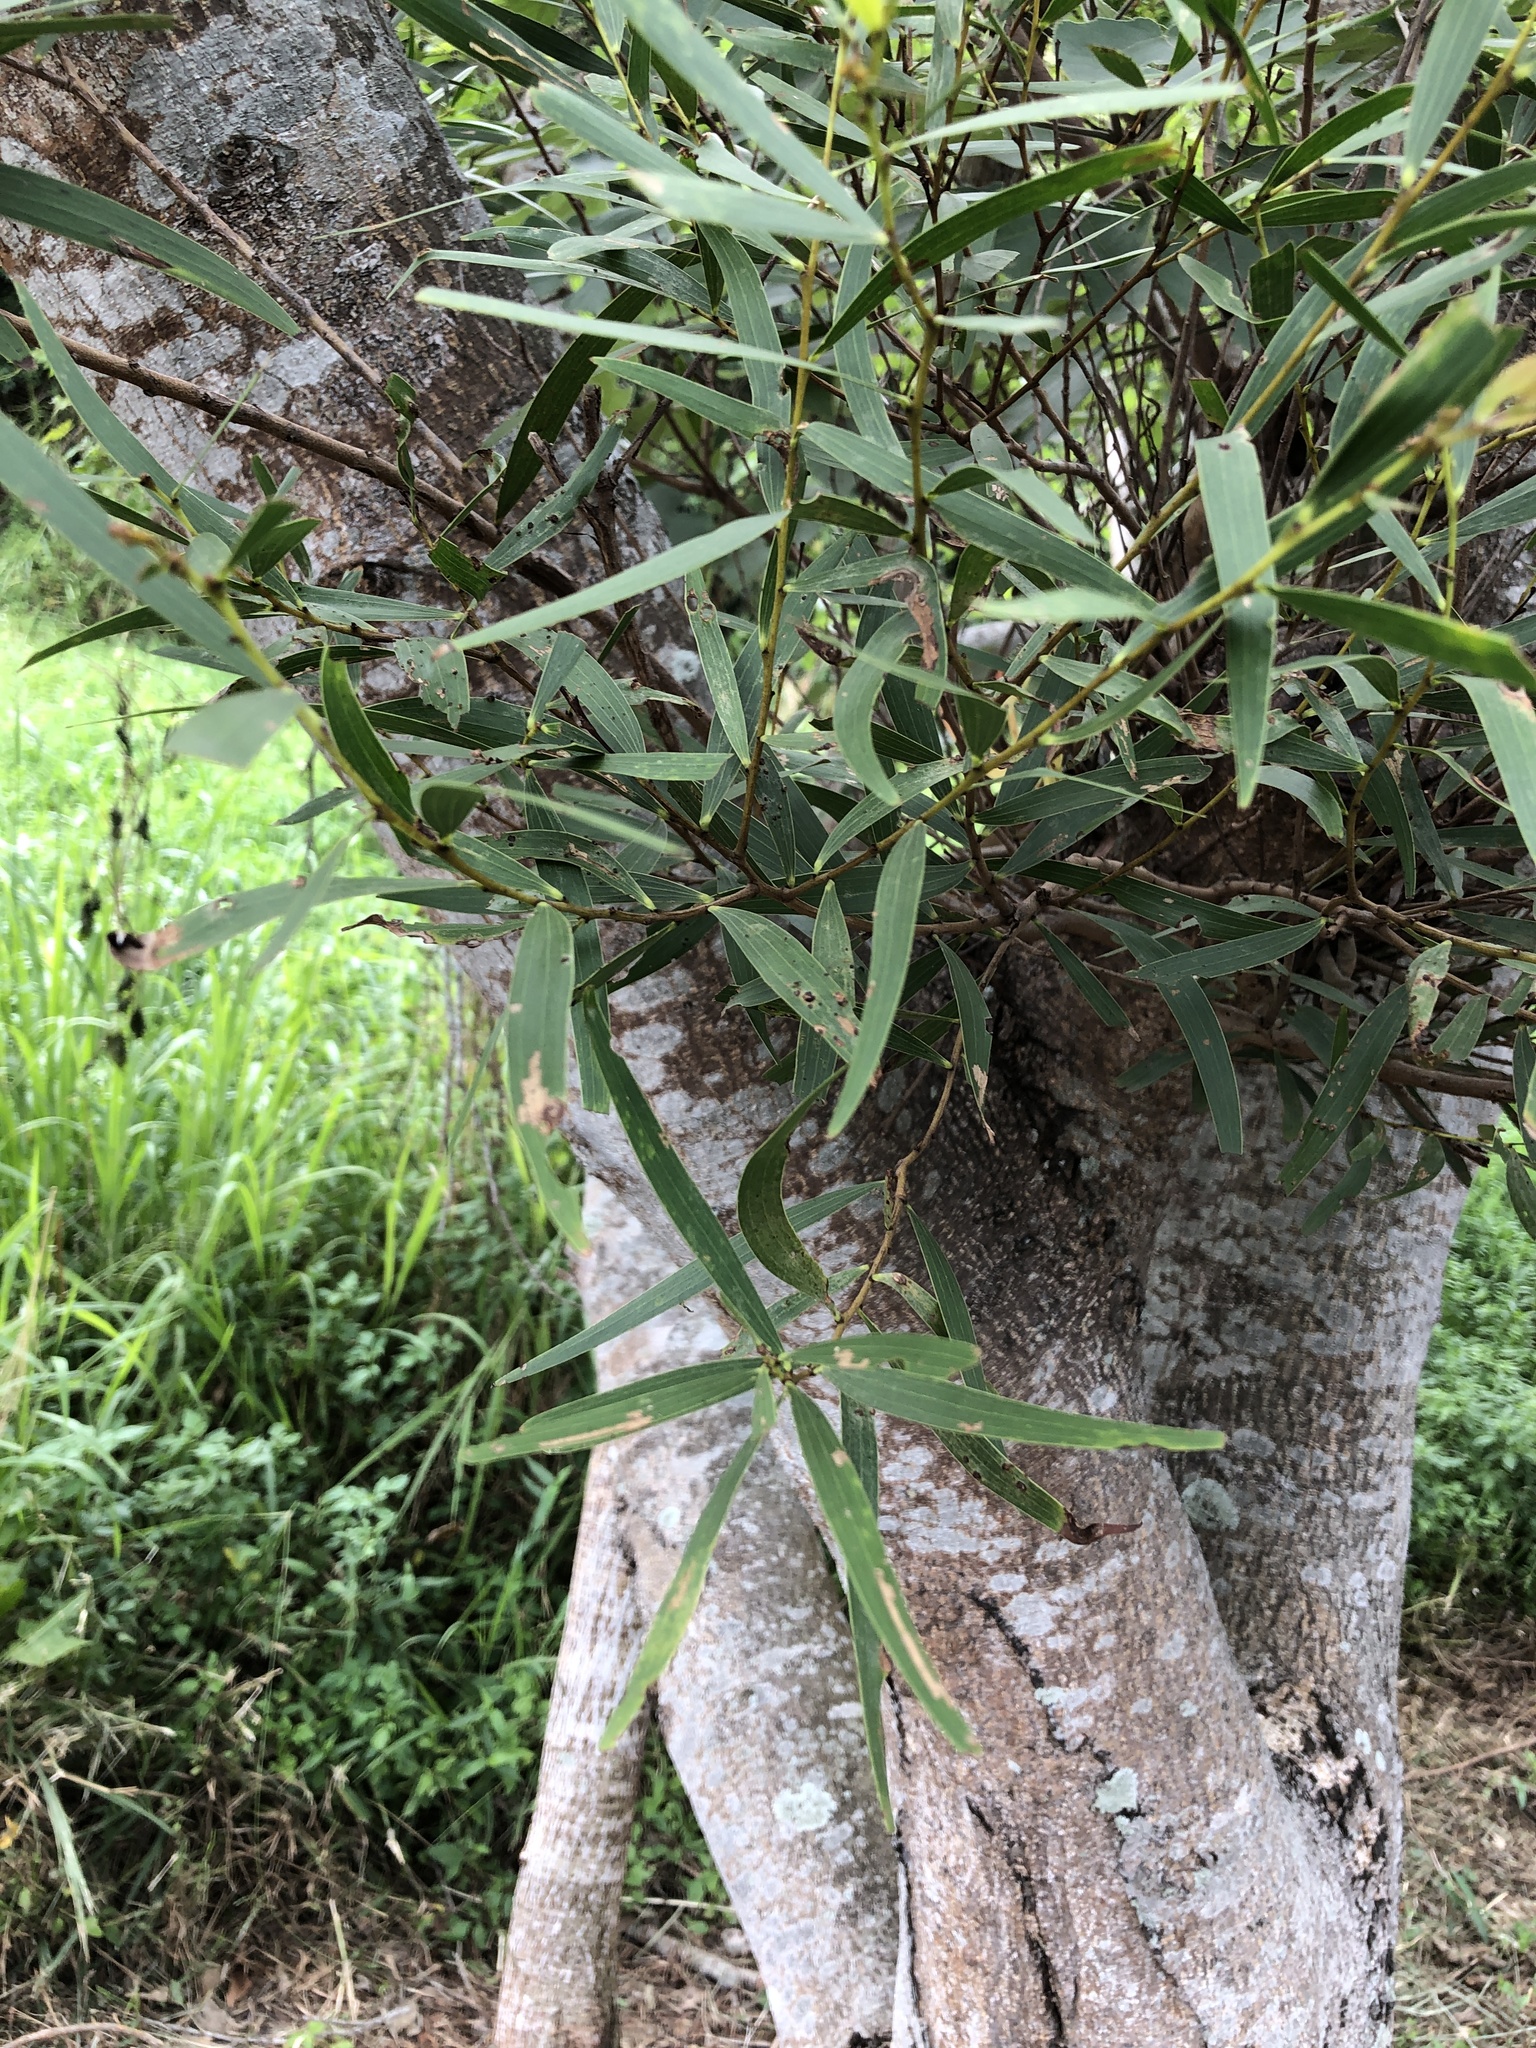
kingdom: Plantae
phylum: Tracheophyta
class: Magnoliopsida
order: Fabales
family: Fabaceae
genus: Acacia
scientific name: Acacia confusa
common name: Formosan koa
